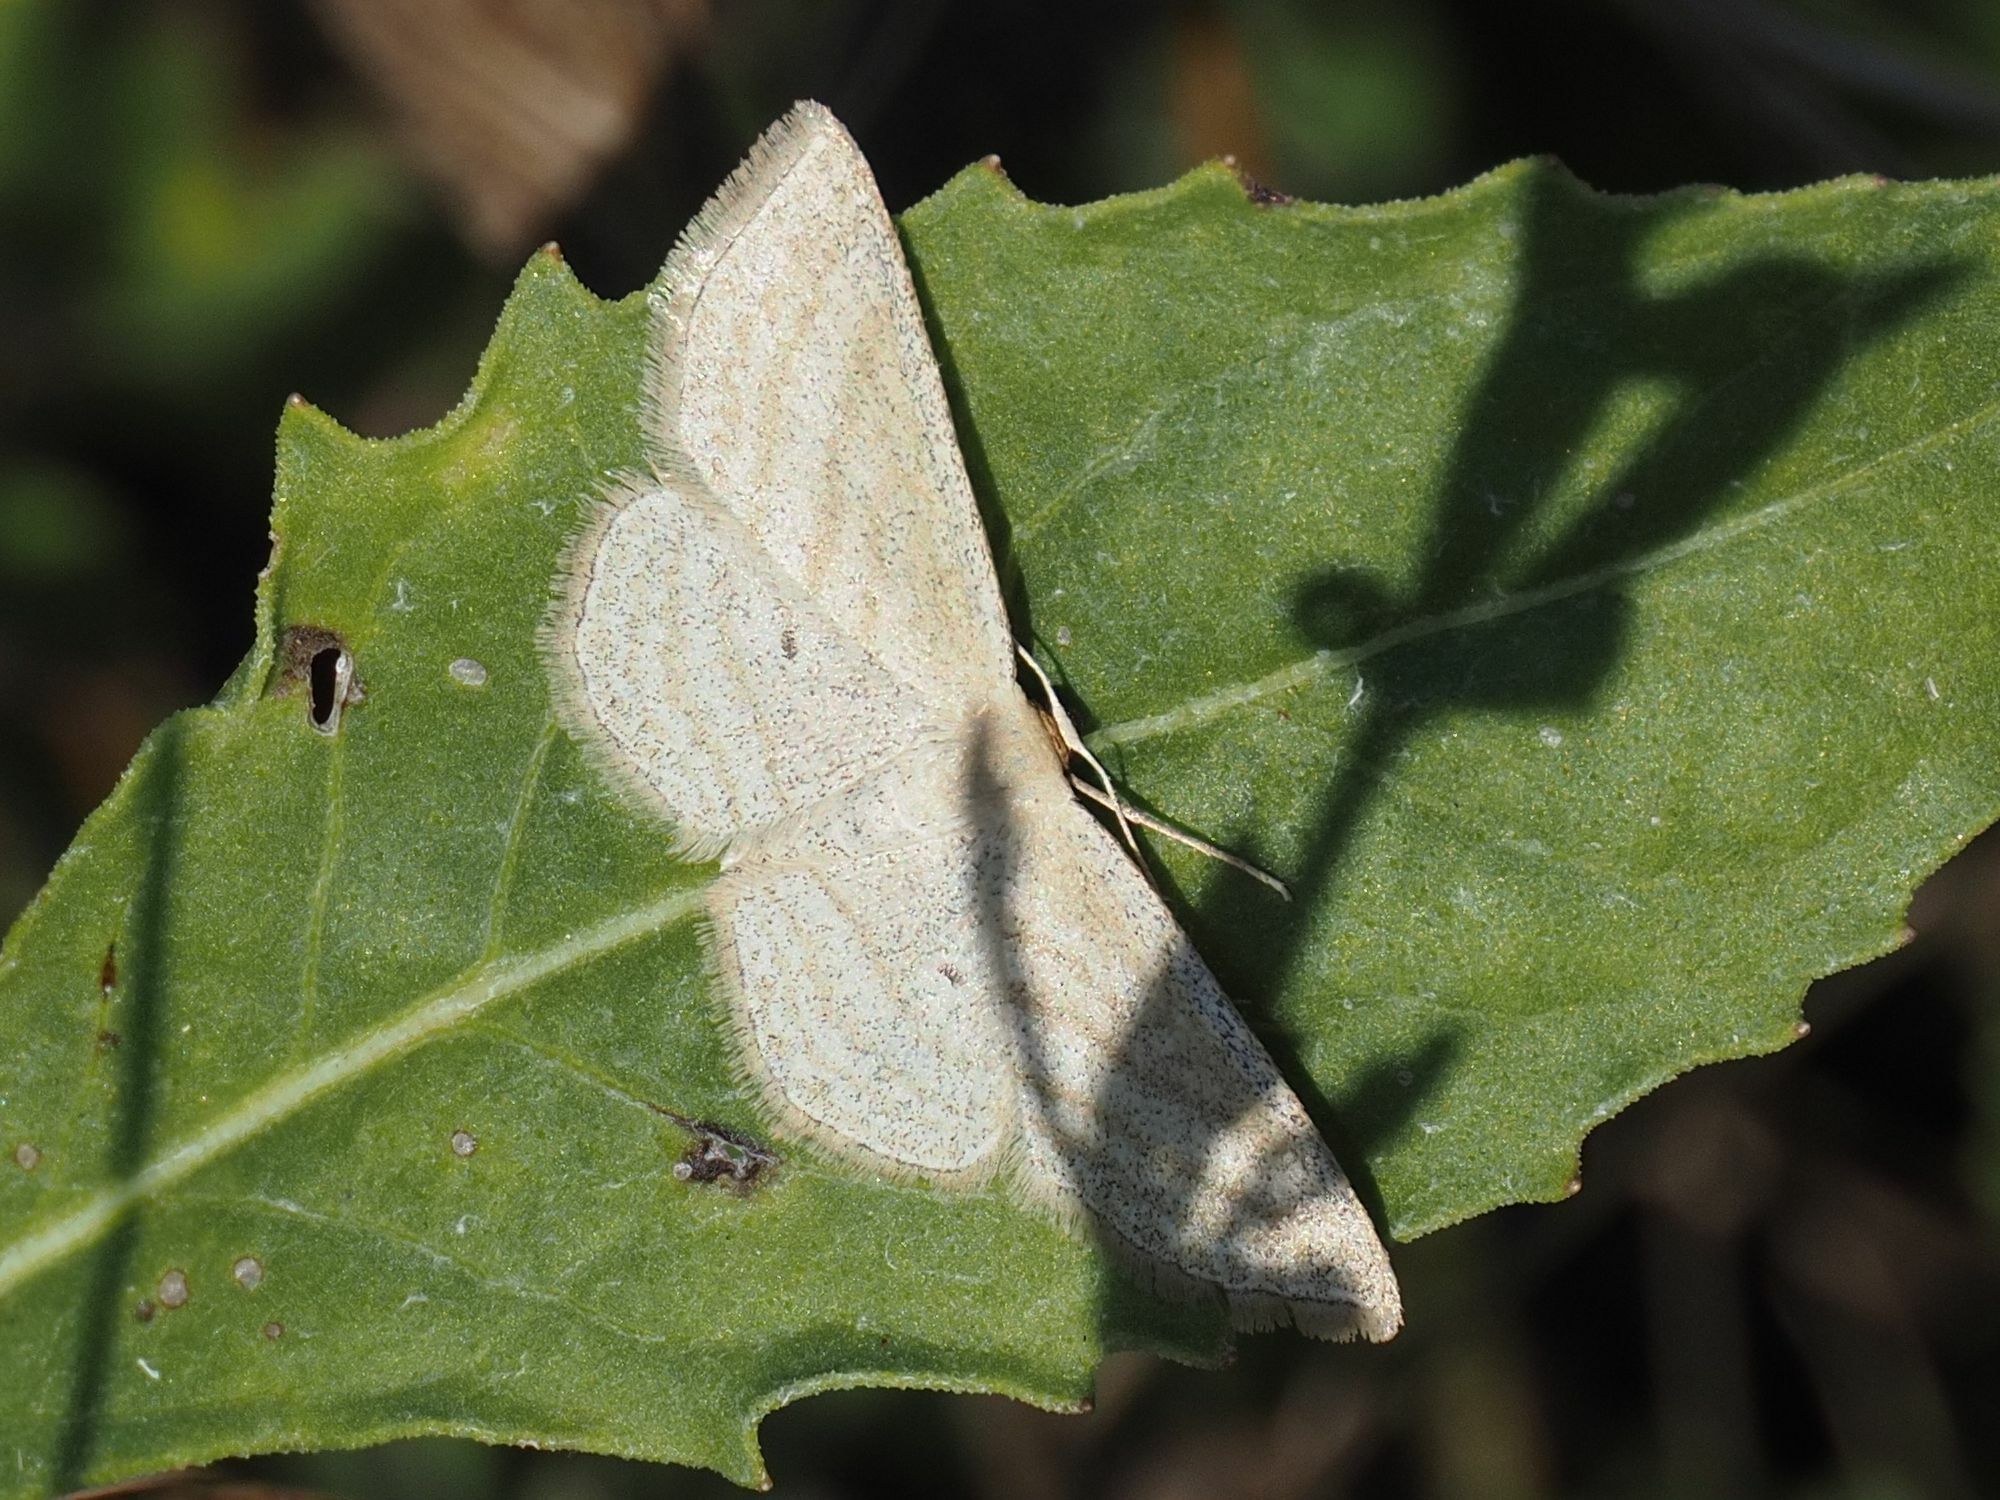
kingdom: Animalia
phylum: Arthropoda
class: Insecta
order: Lepidoptera
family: Geometridae
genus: Scopula
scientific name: Scopula virgulata
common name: Streaked wave
